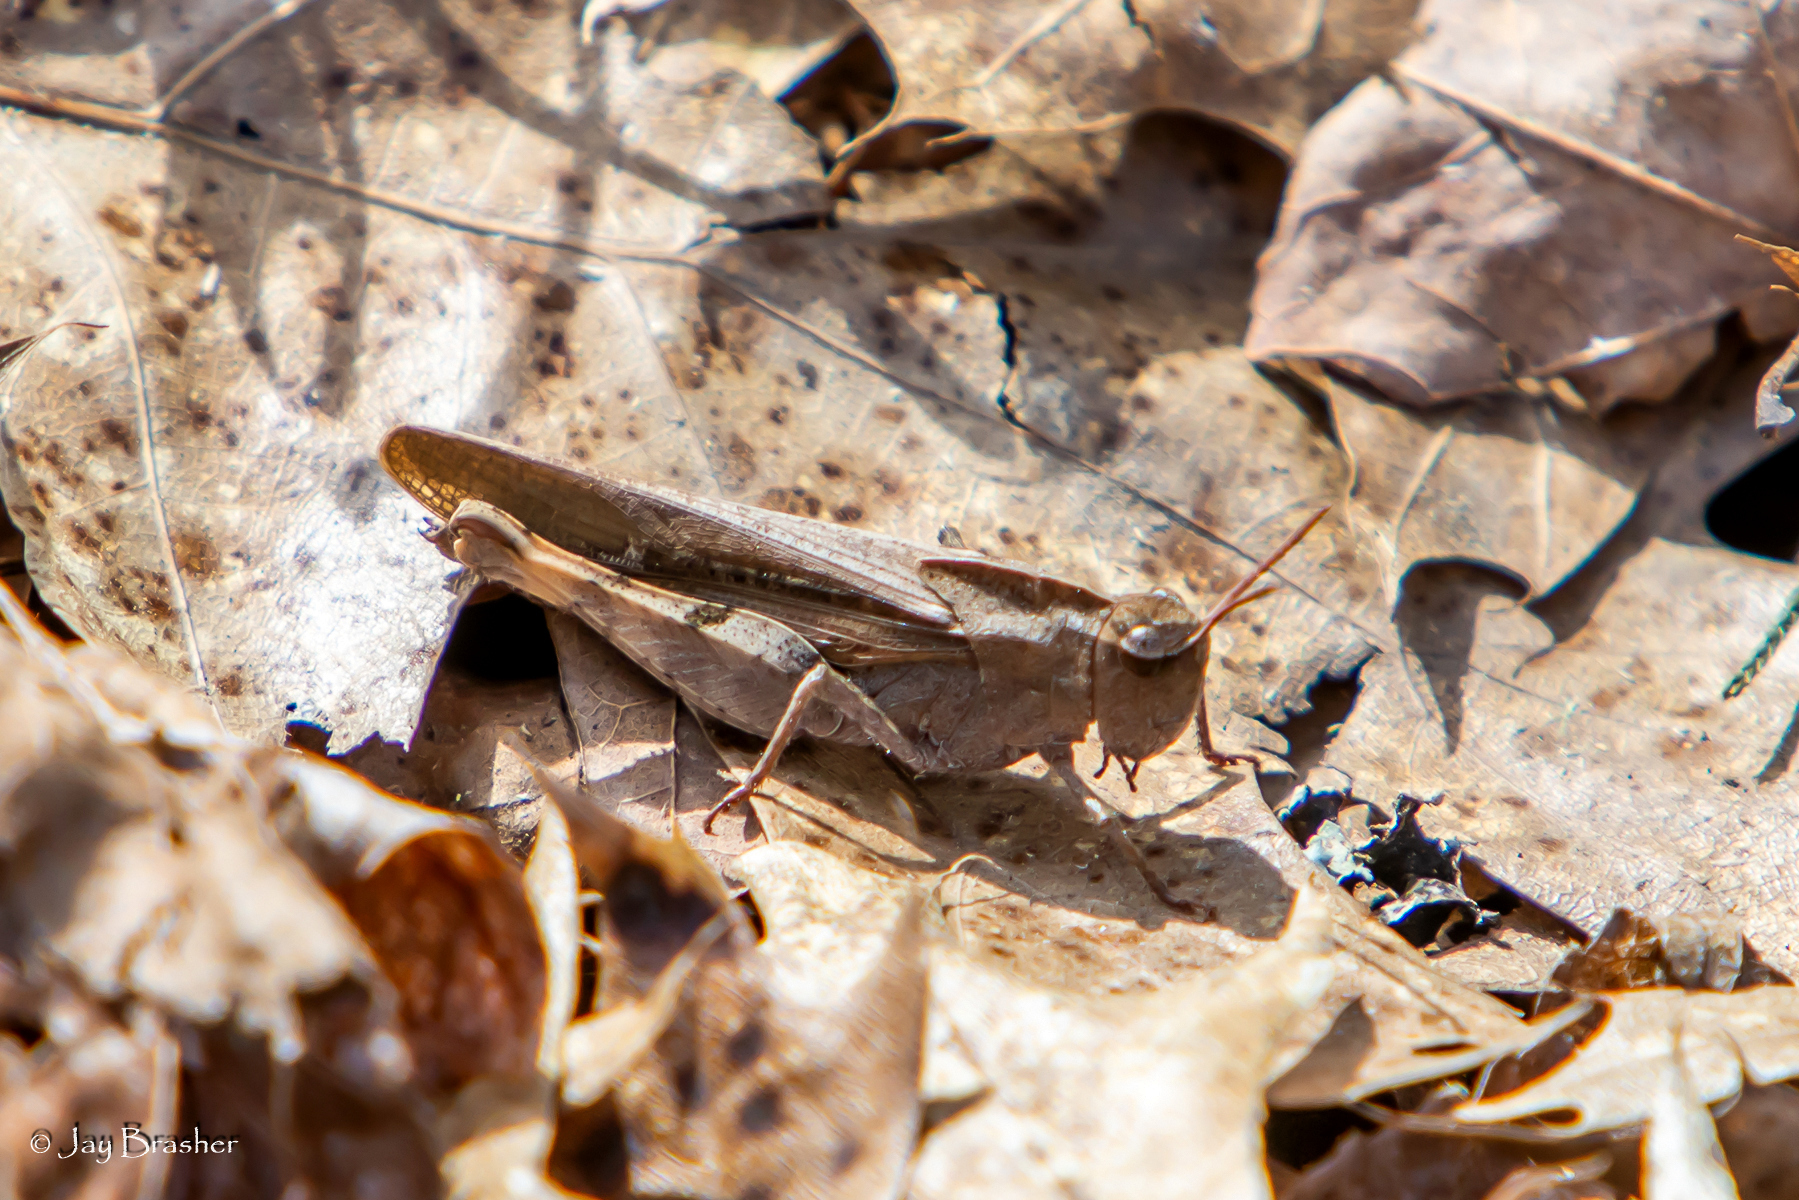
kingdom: Animalia
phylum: Arthropoda
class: Insecta
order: Orthoptera
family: Acrididae
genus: Chortophaga
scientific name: Chortophaga viridifasciata
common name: Green-striped grasshopper
